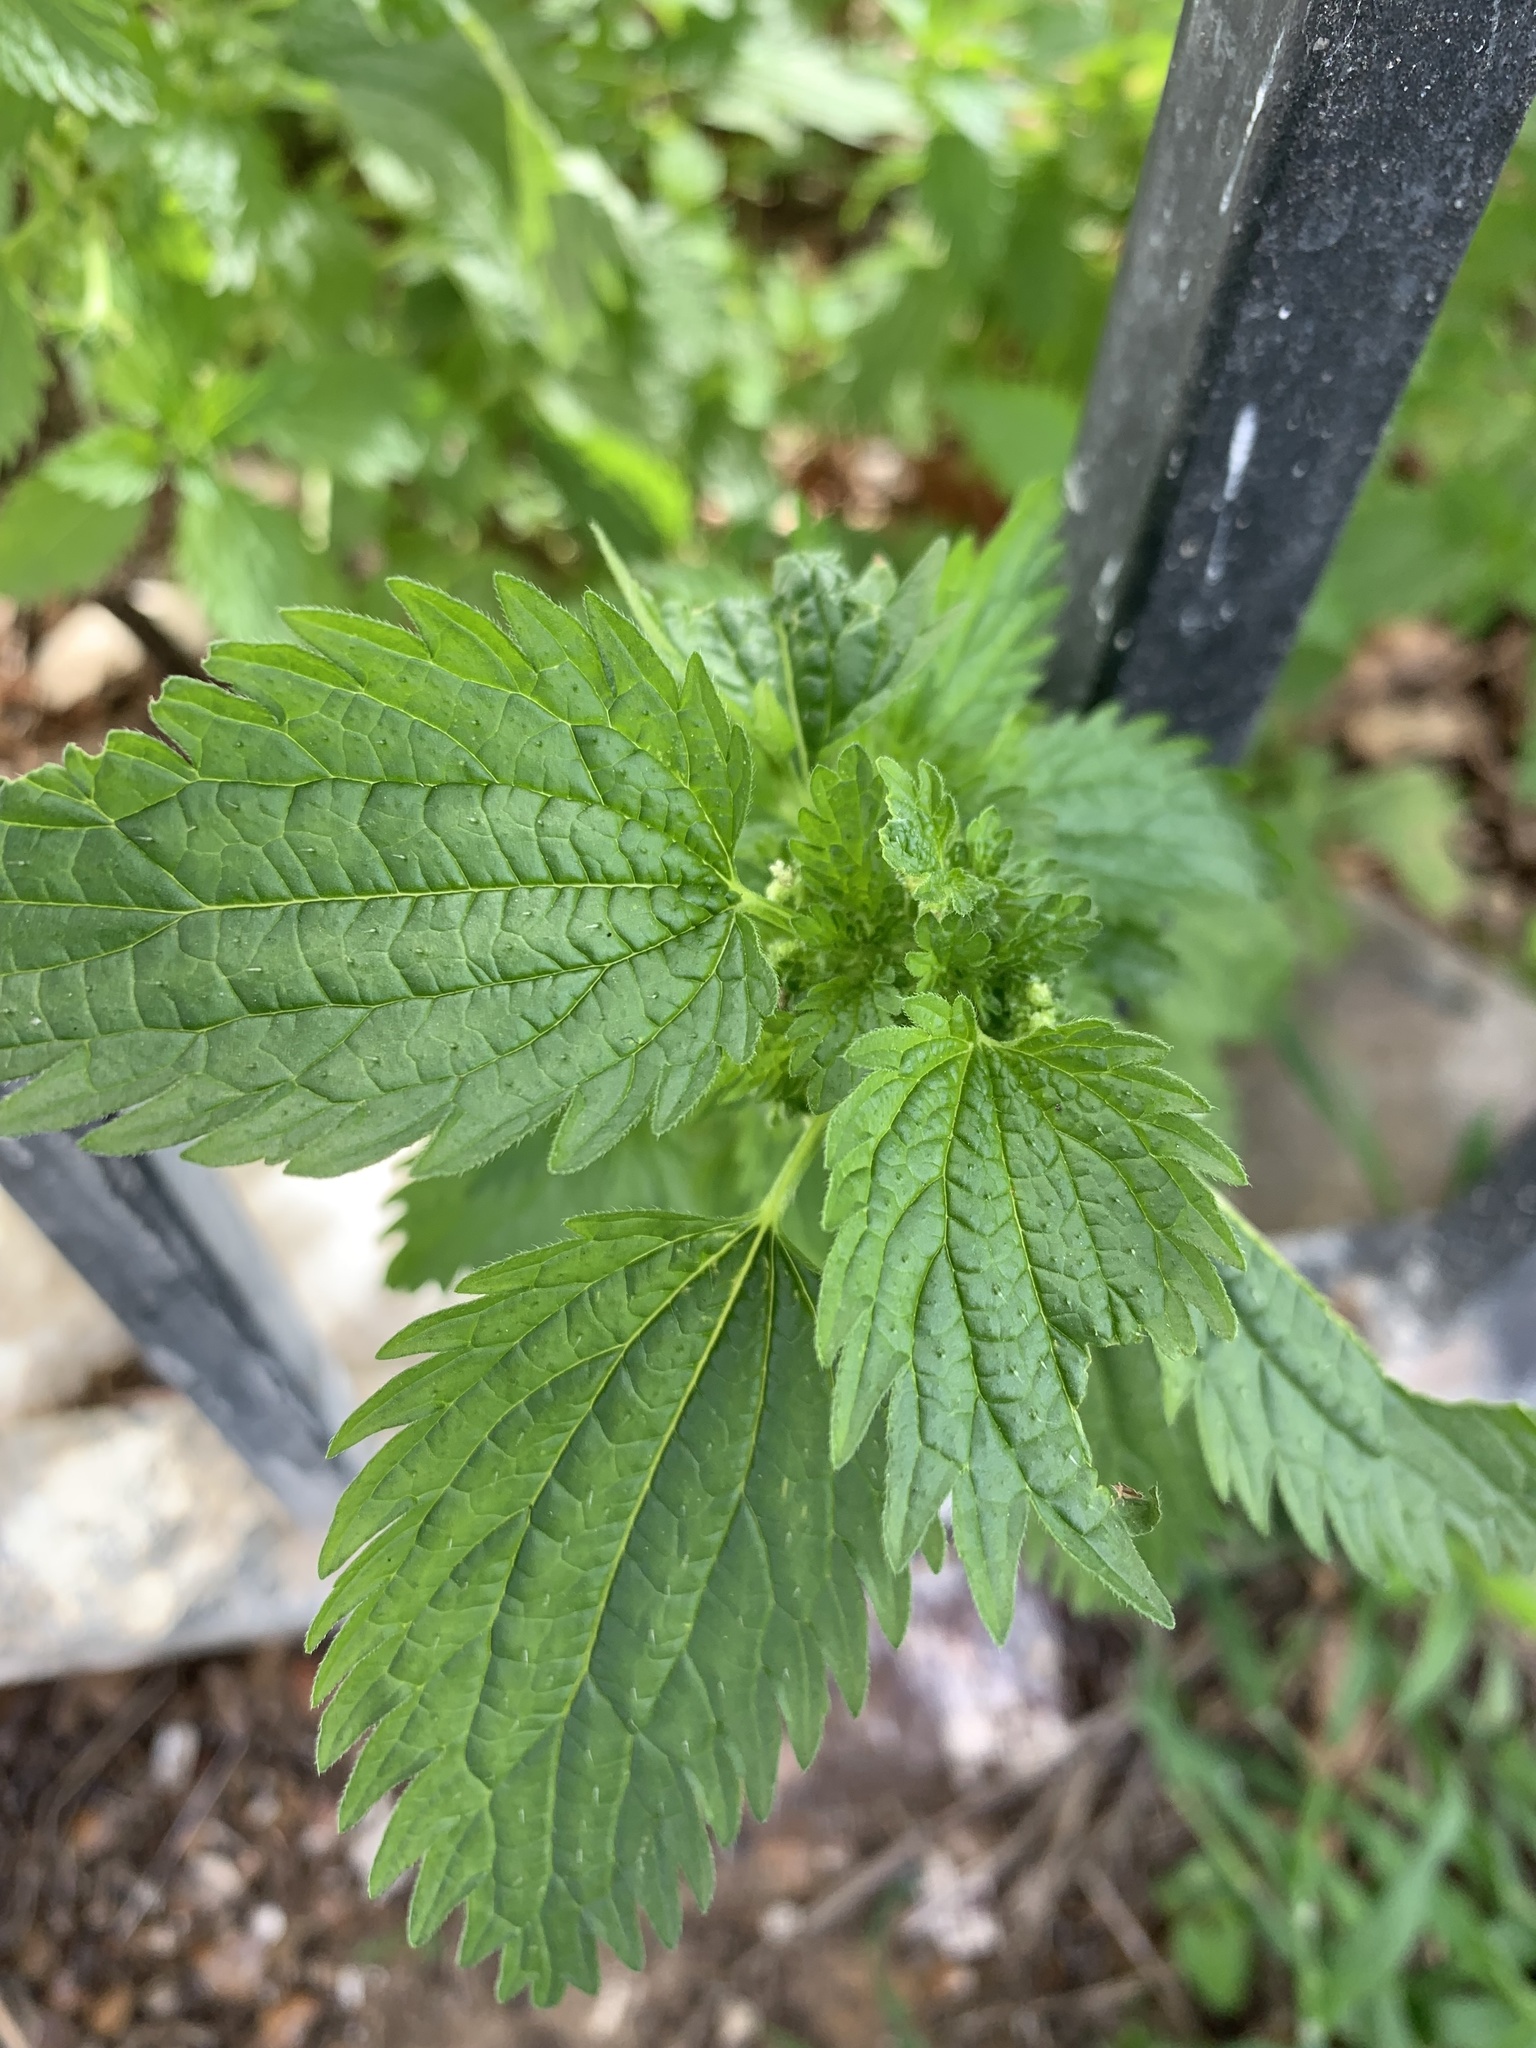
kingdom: Plantae
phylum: Tracheophyta
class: Magnoliopsida
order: Rosales
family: Urticaceae
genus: Urtica
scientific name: Urtica urens
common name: Dwarf nettle
